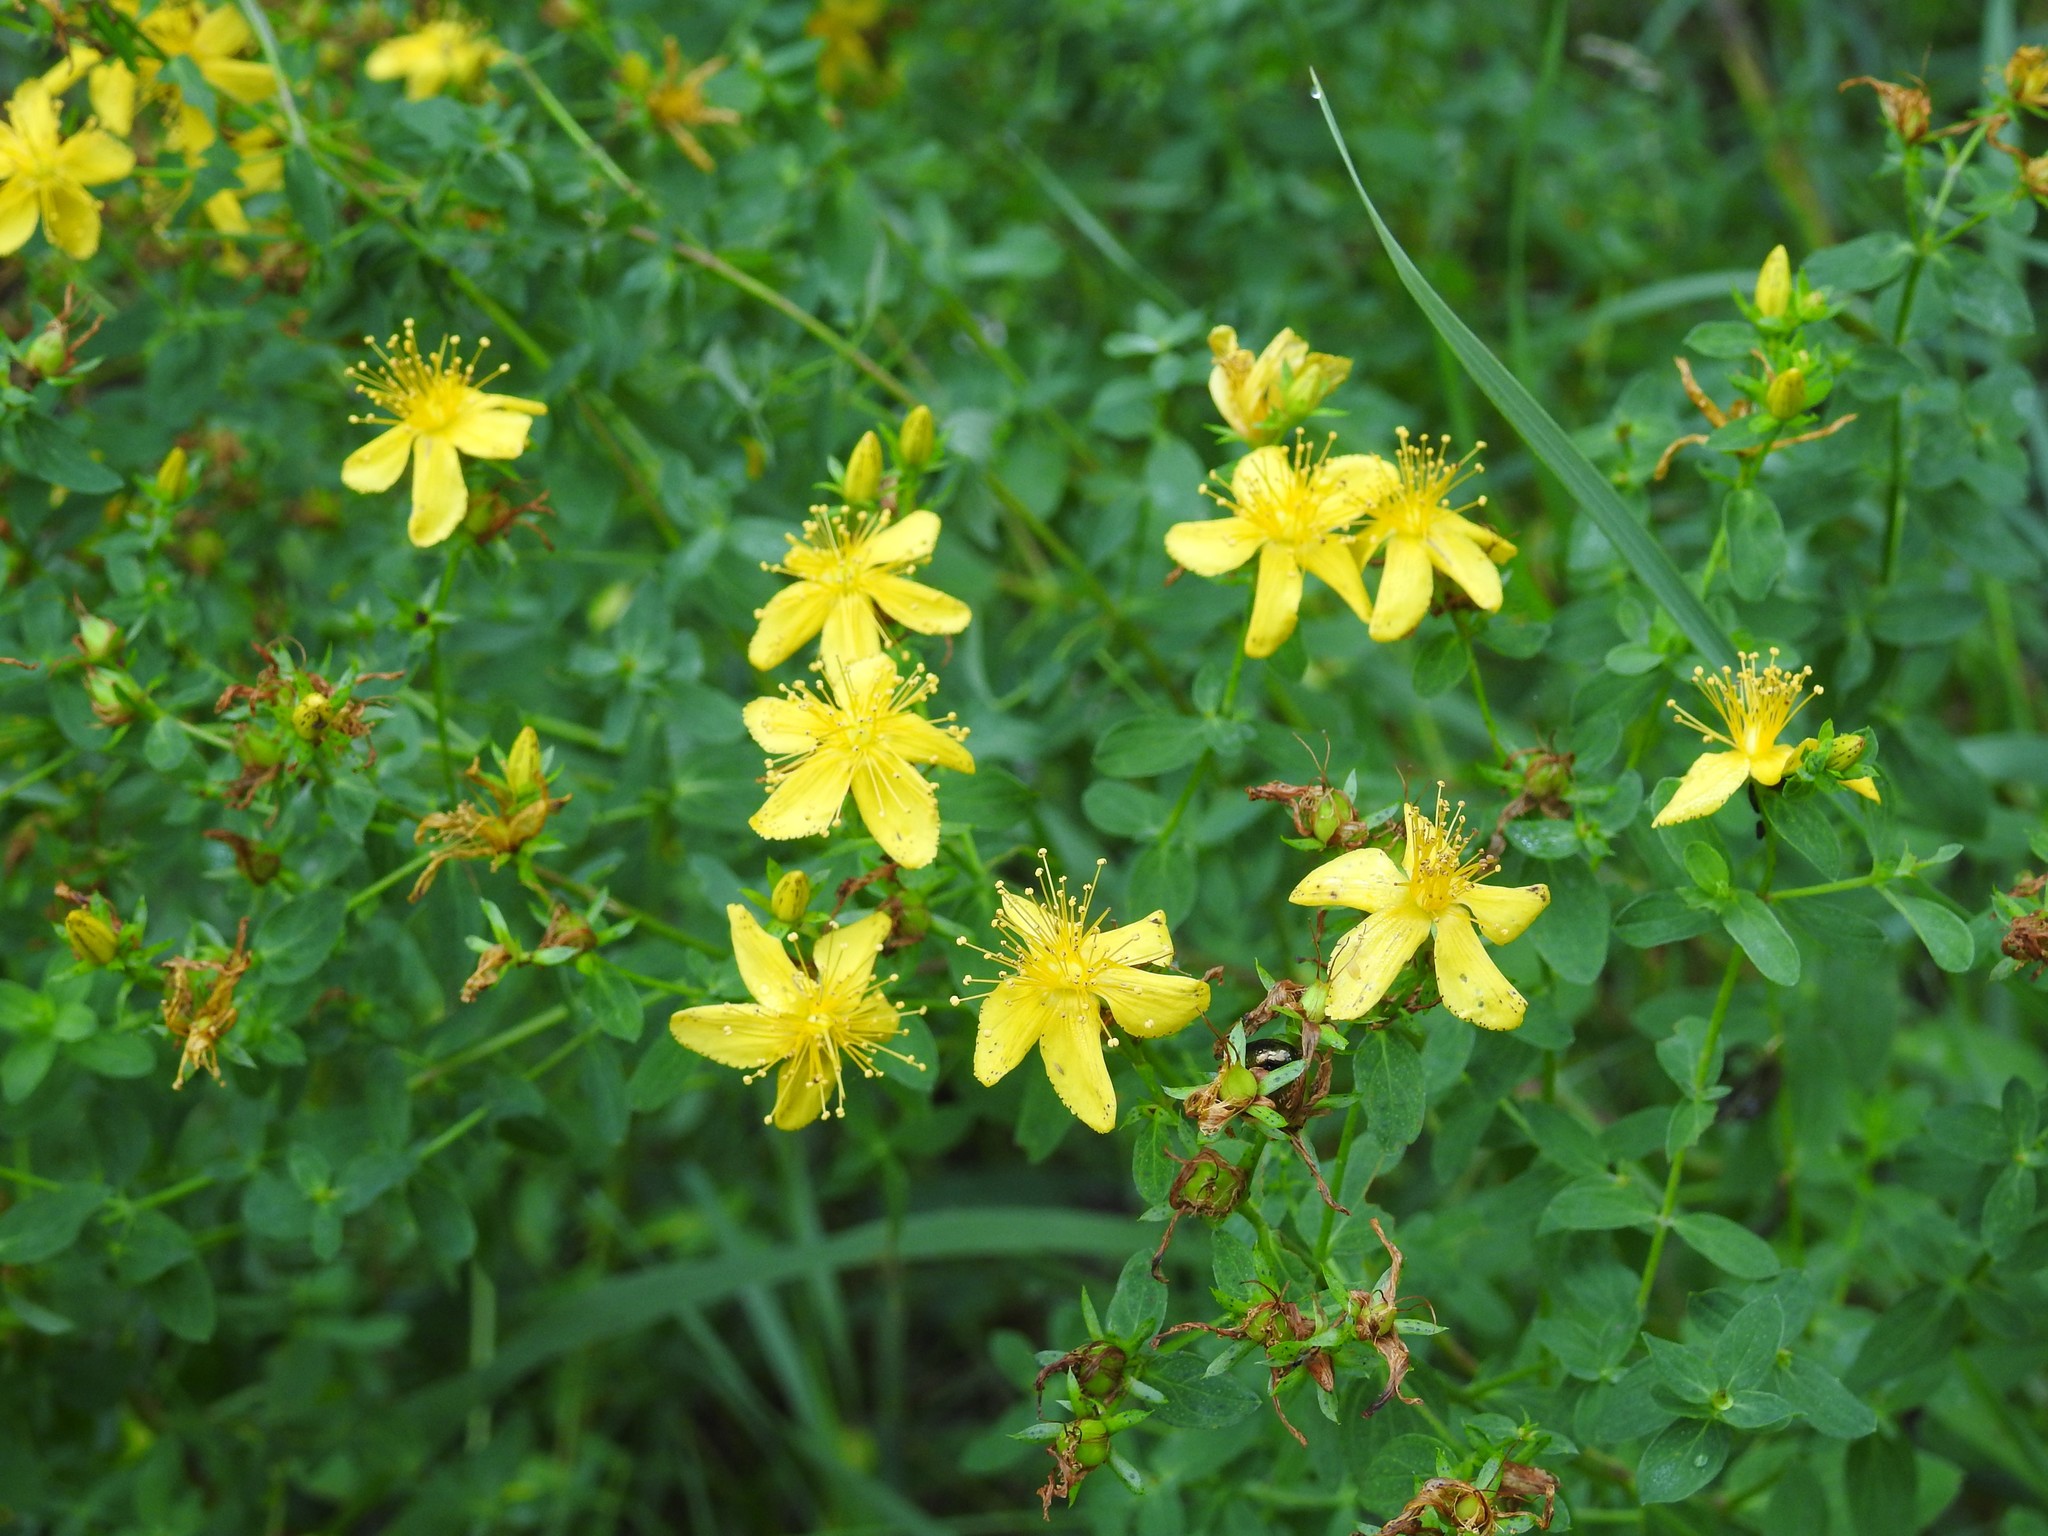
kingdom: Plantae
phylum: Tracheophyta
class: Magnoliopsida
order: Malpighiales
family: Hypericaceae
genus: Hypericum
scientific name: Hypericum perforatum
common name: Common st. johnswort
